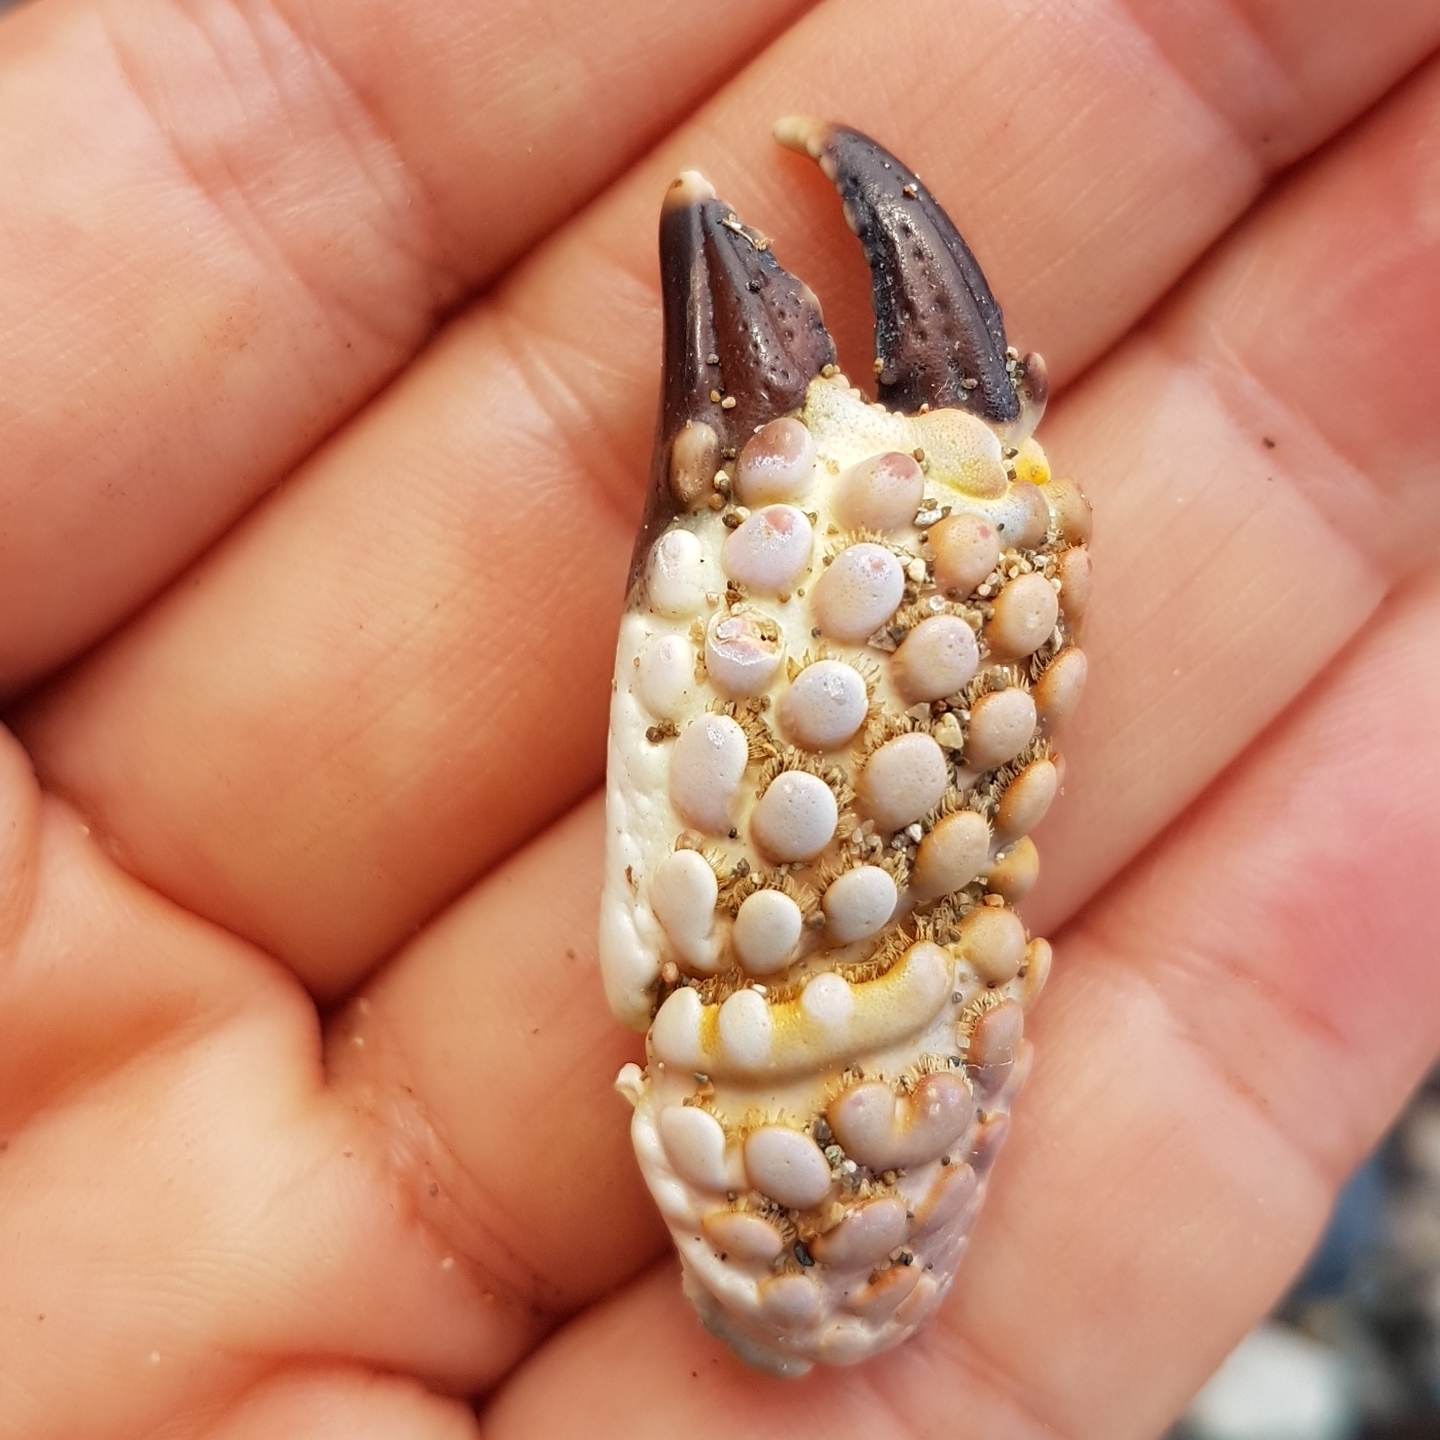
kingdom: Animalia
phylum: Arthropoda
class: Malacostraca
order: Decapoda
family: Eriphiidae
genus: Eriphia
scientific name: Eriphia squamata
